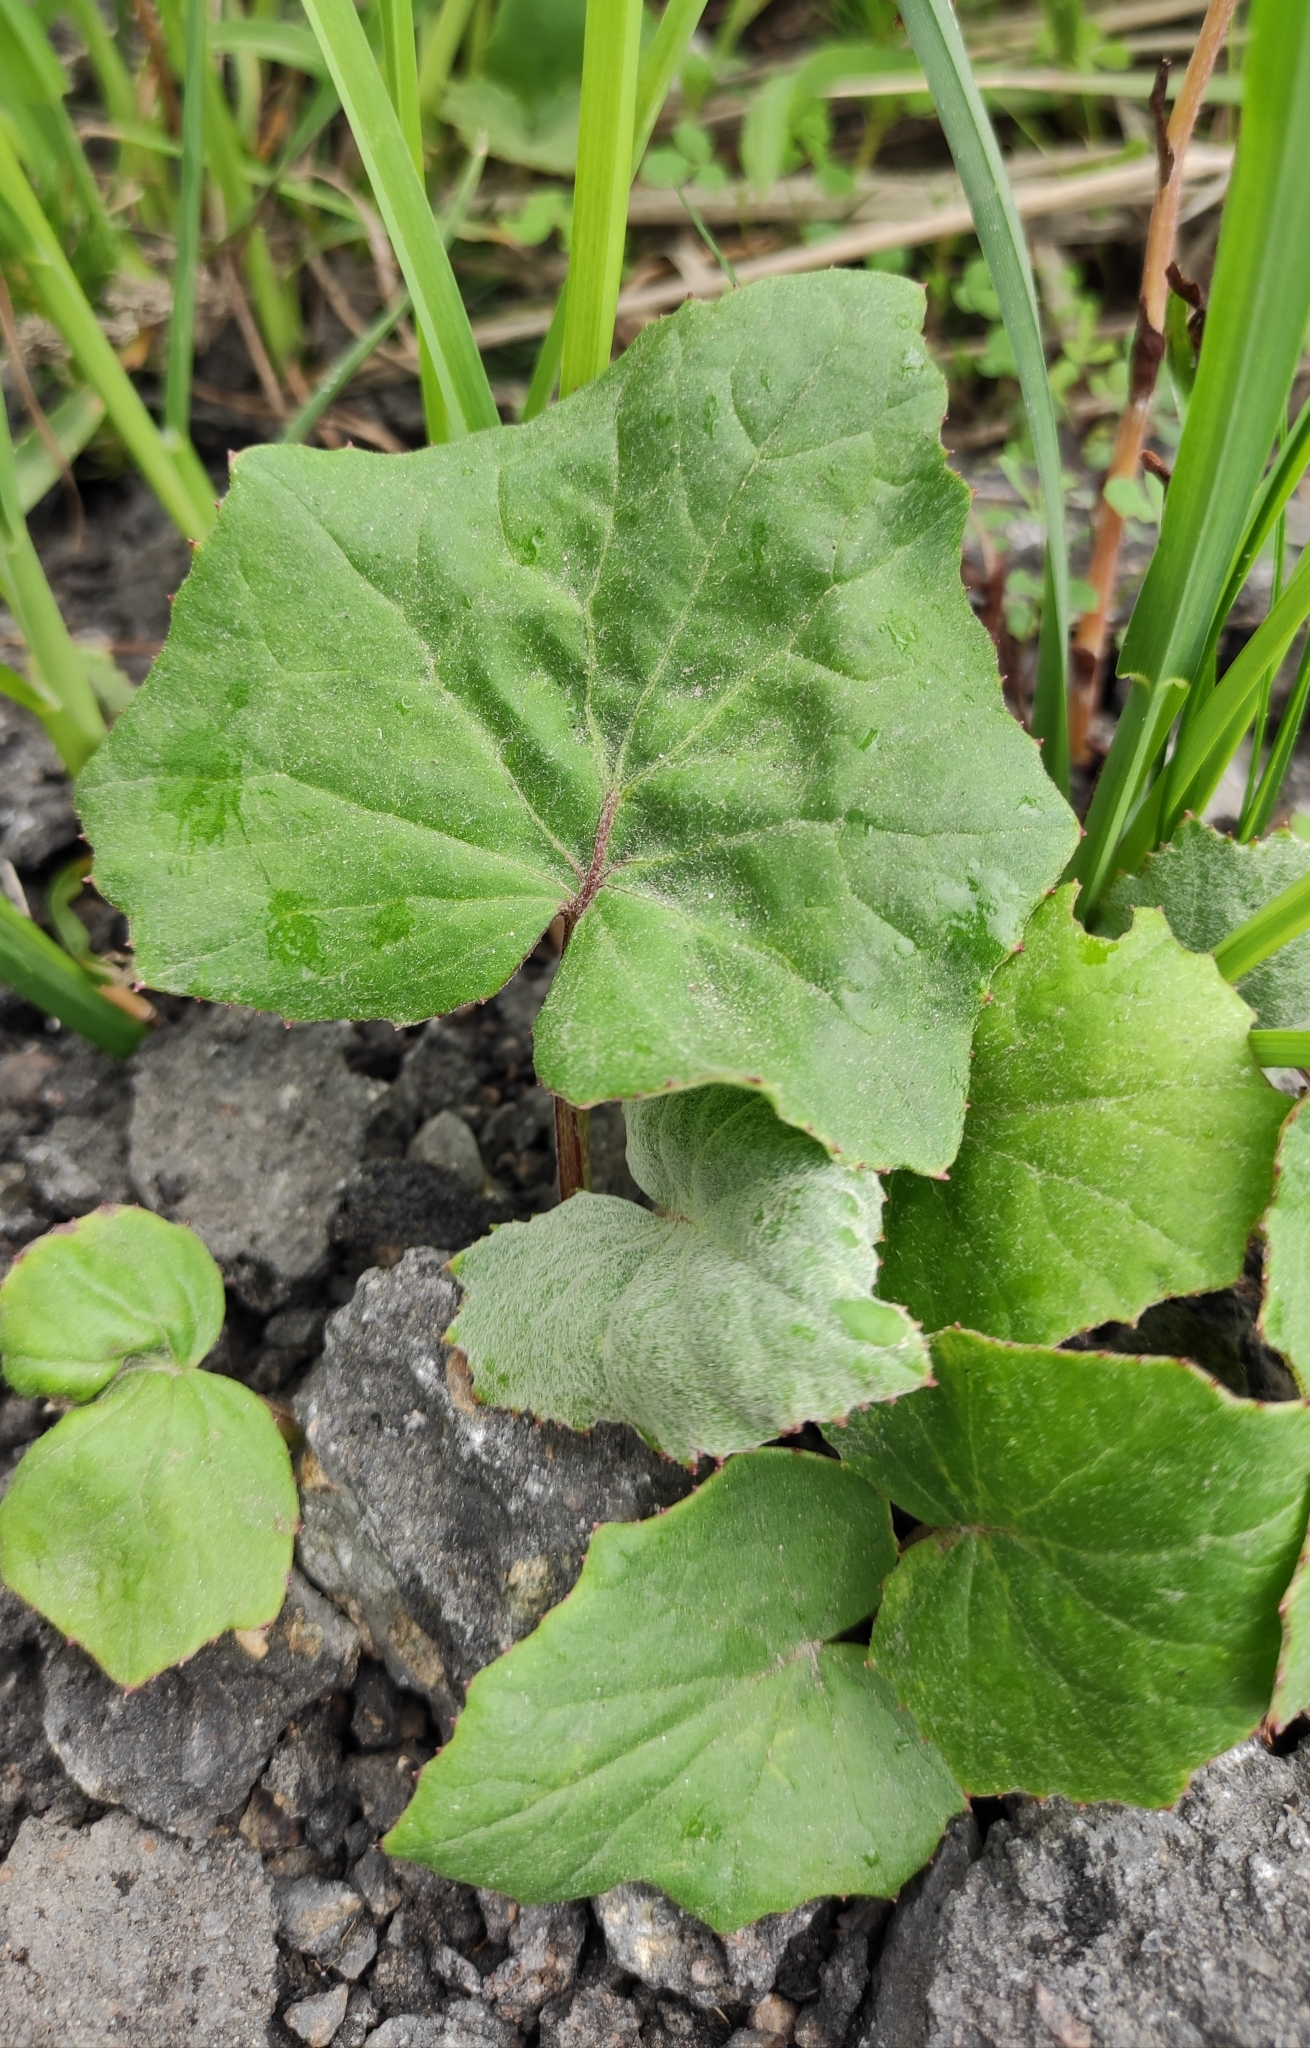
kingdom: Plantae
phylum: Tracheophyta
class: Magnoliopsida
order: Asterales
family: Asteraceae
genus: Tussilago
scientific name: Tussilago farfara
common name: Coltsfoot
